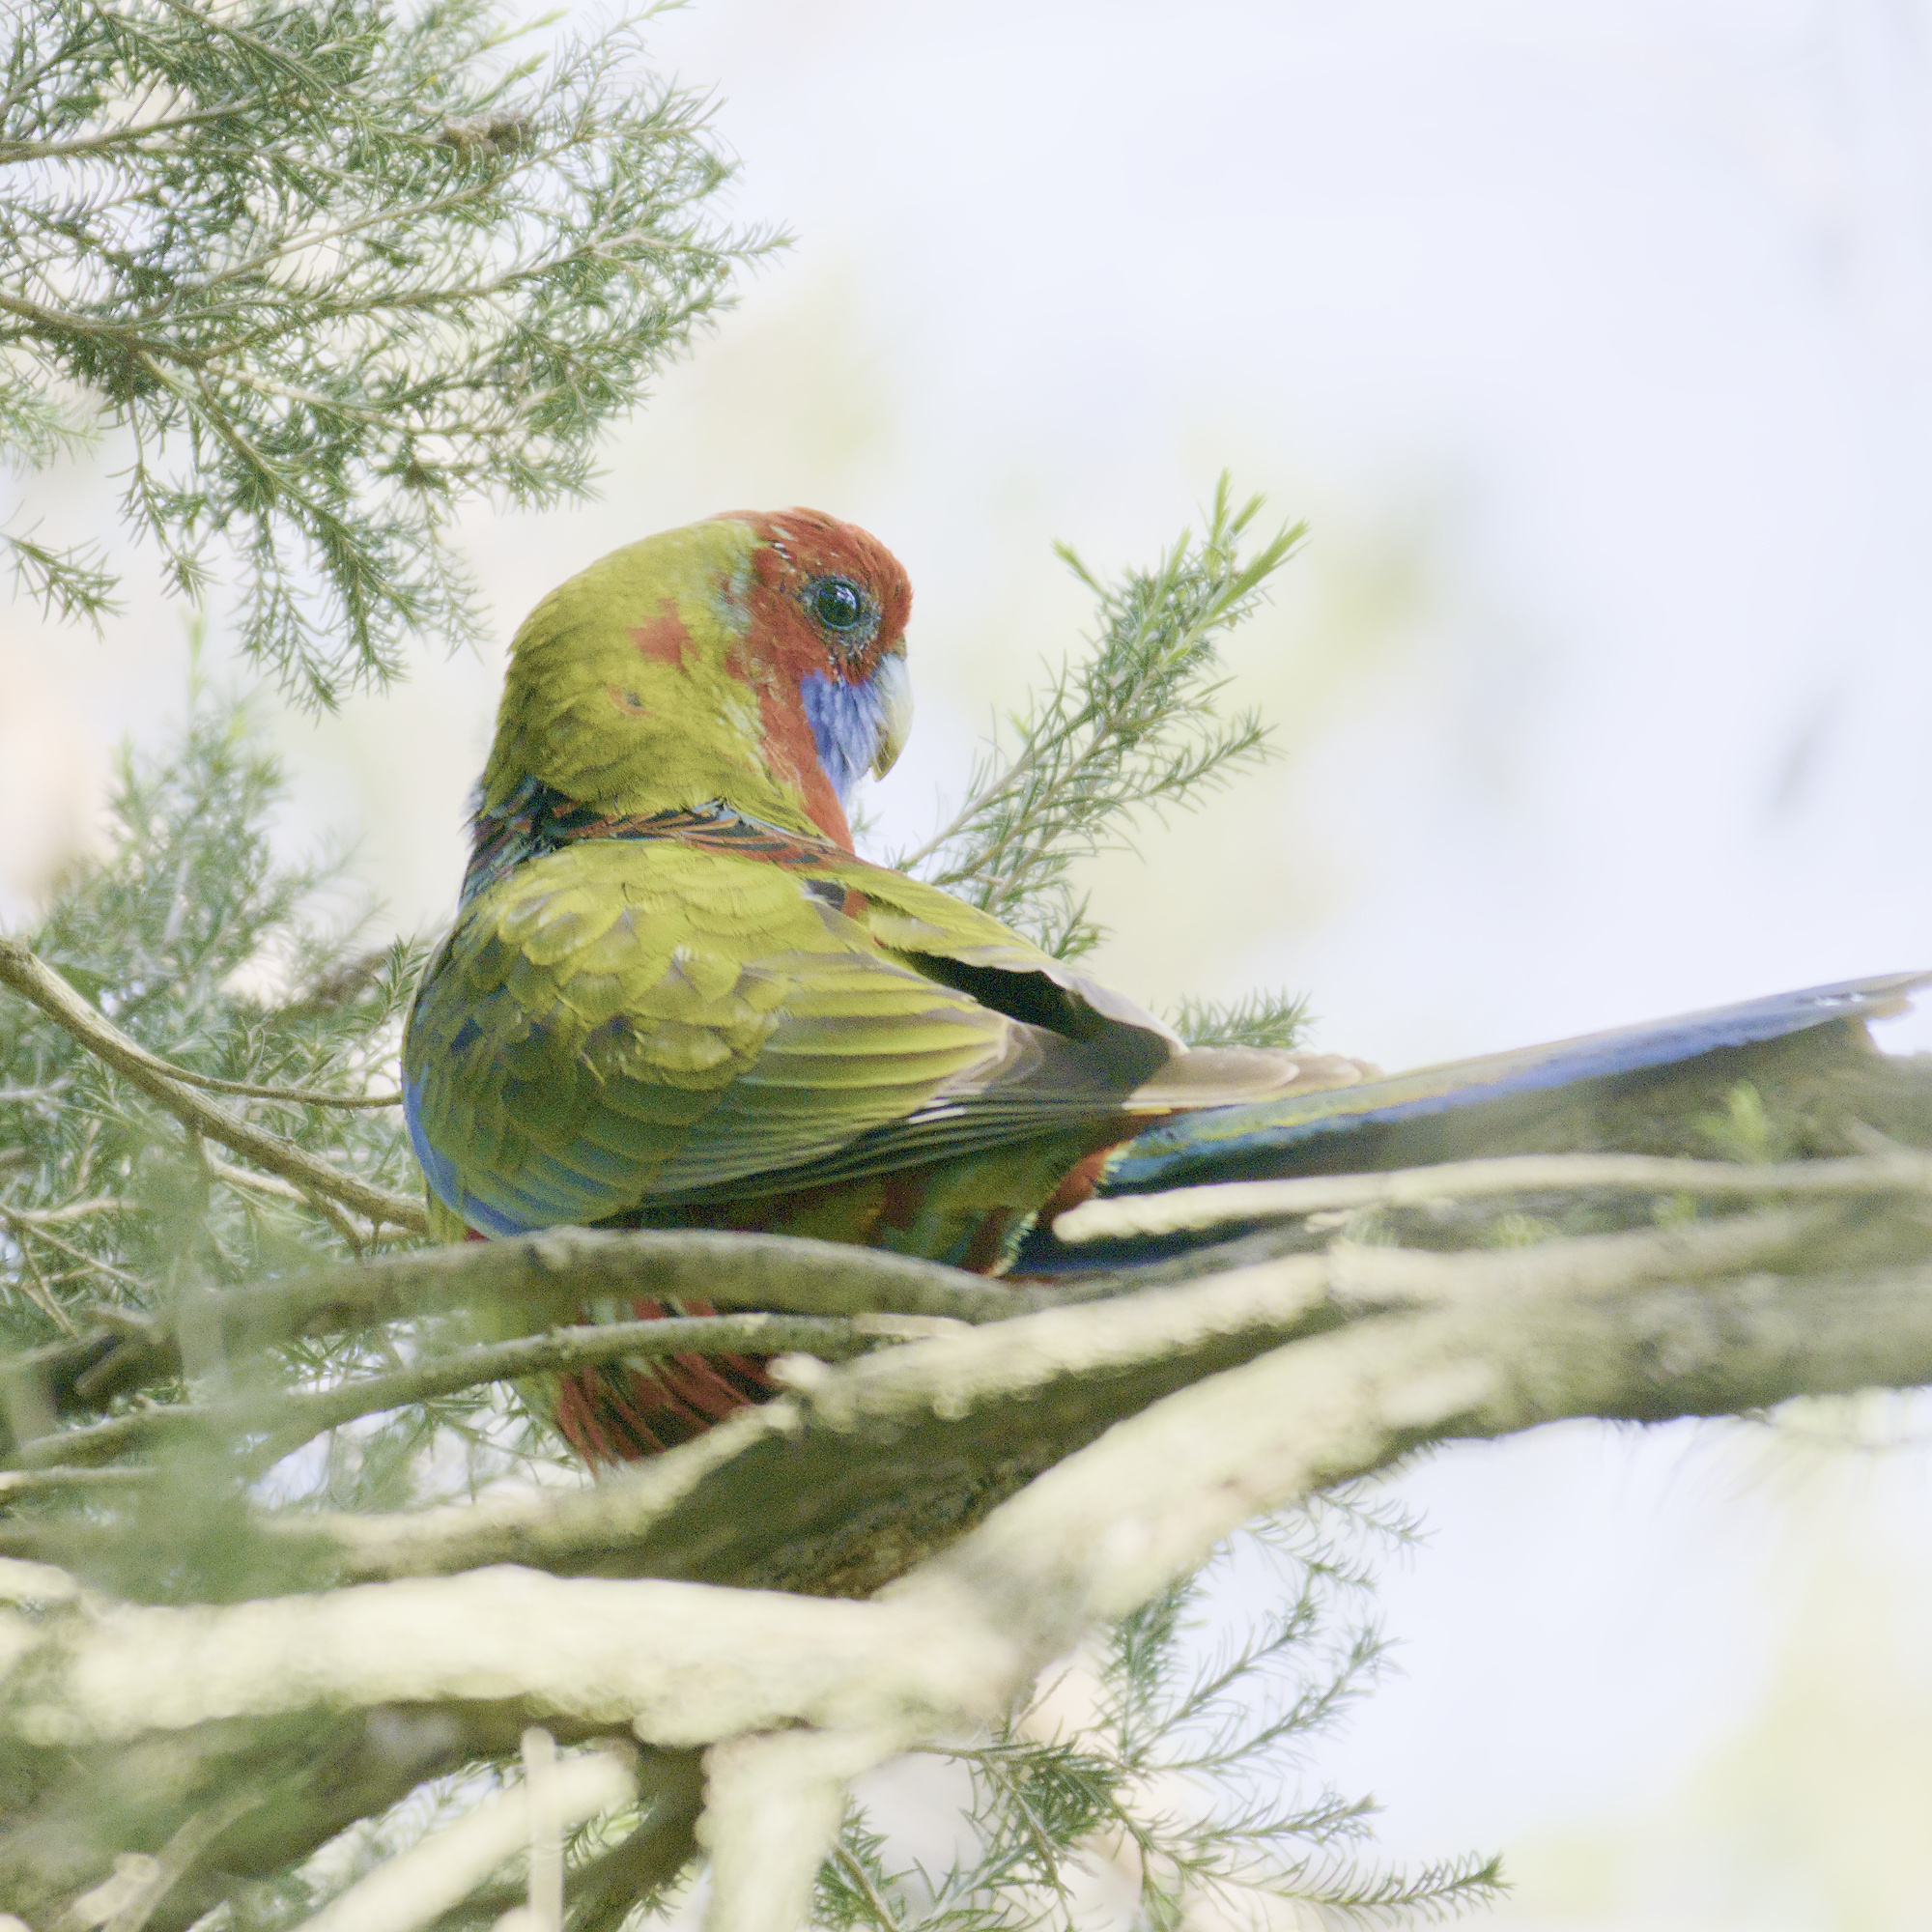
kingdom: Animalia
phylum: Chordata
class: Aves
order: Psittaciformes
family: Psittacidae
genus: Platycercus
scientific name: Platycercus elegans
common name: Crimson rosella
